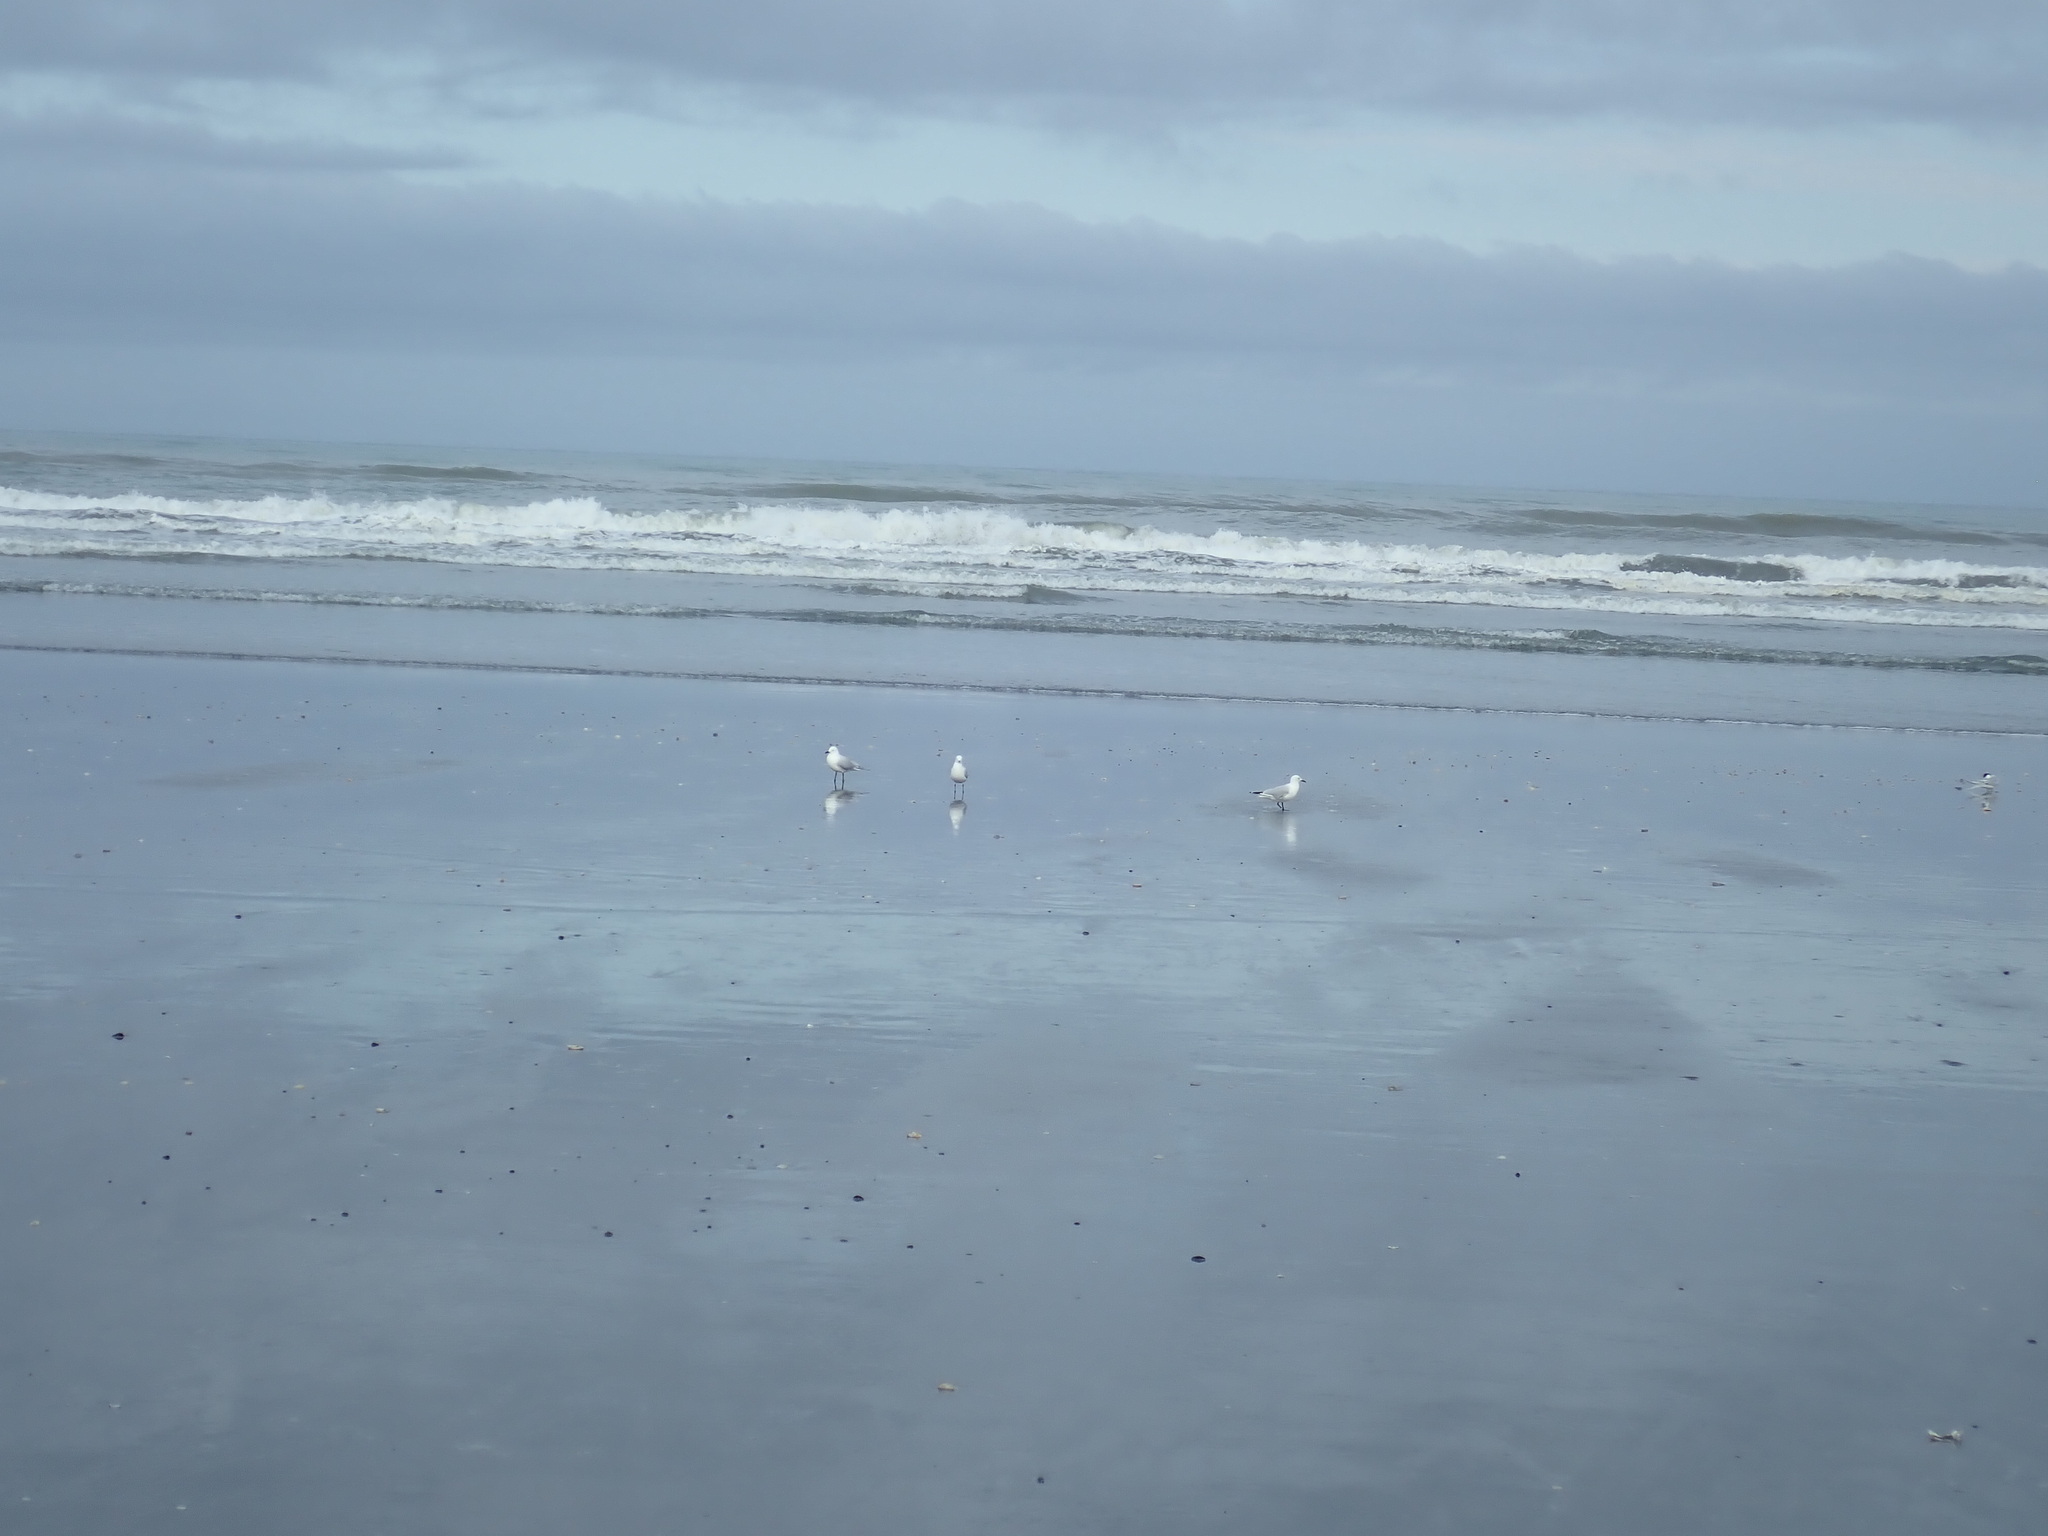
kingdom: Animalia
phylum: Chordata
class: Aves
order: Charadriiformes
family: Laridae
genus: Chroicocephalus
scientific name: Chroicocephalus bulleri
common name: Black-billed gull
